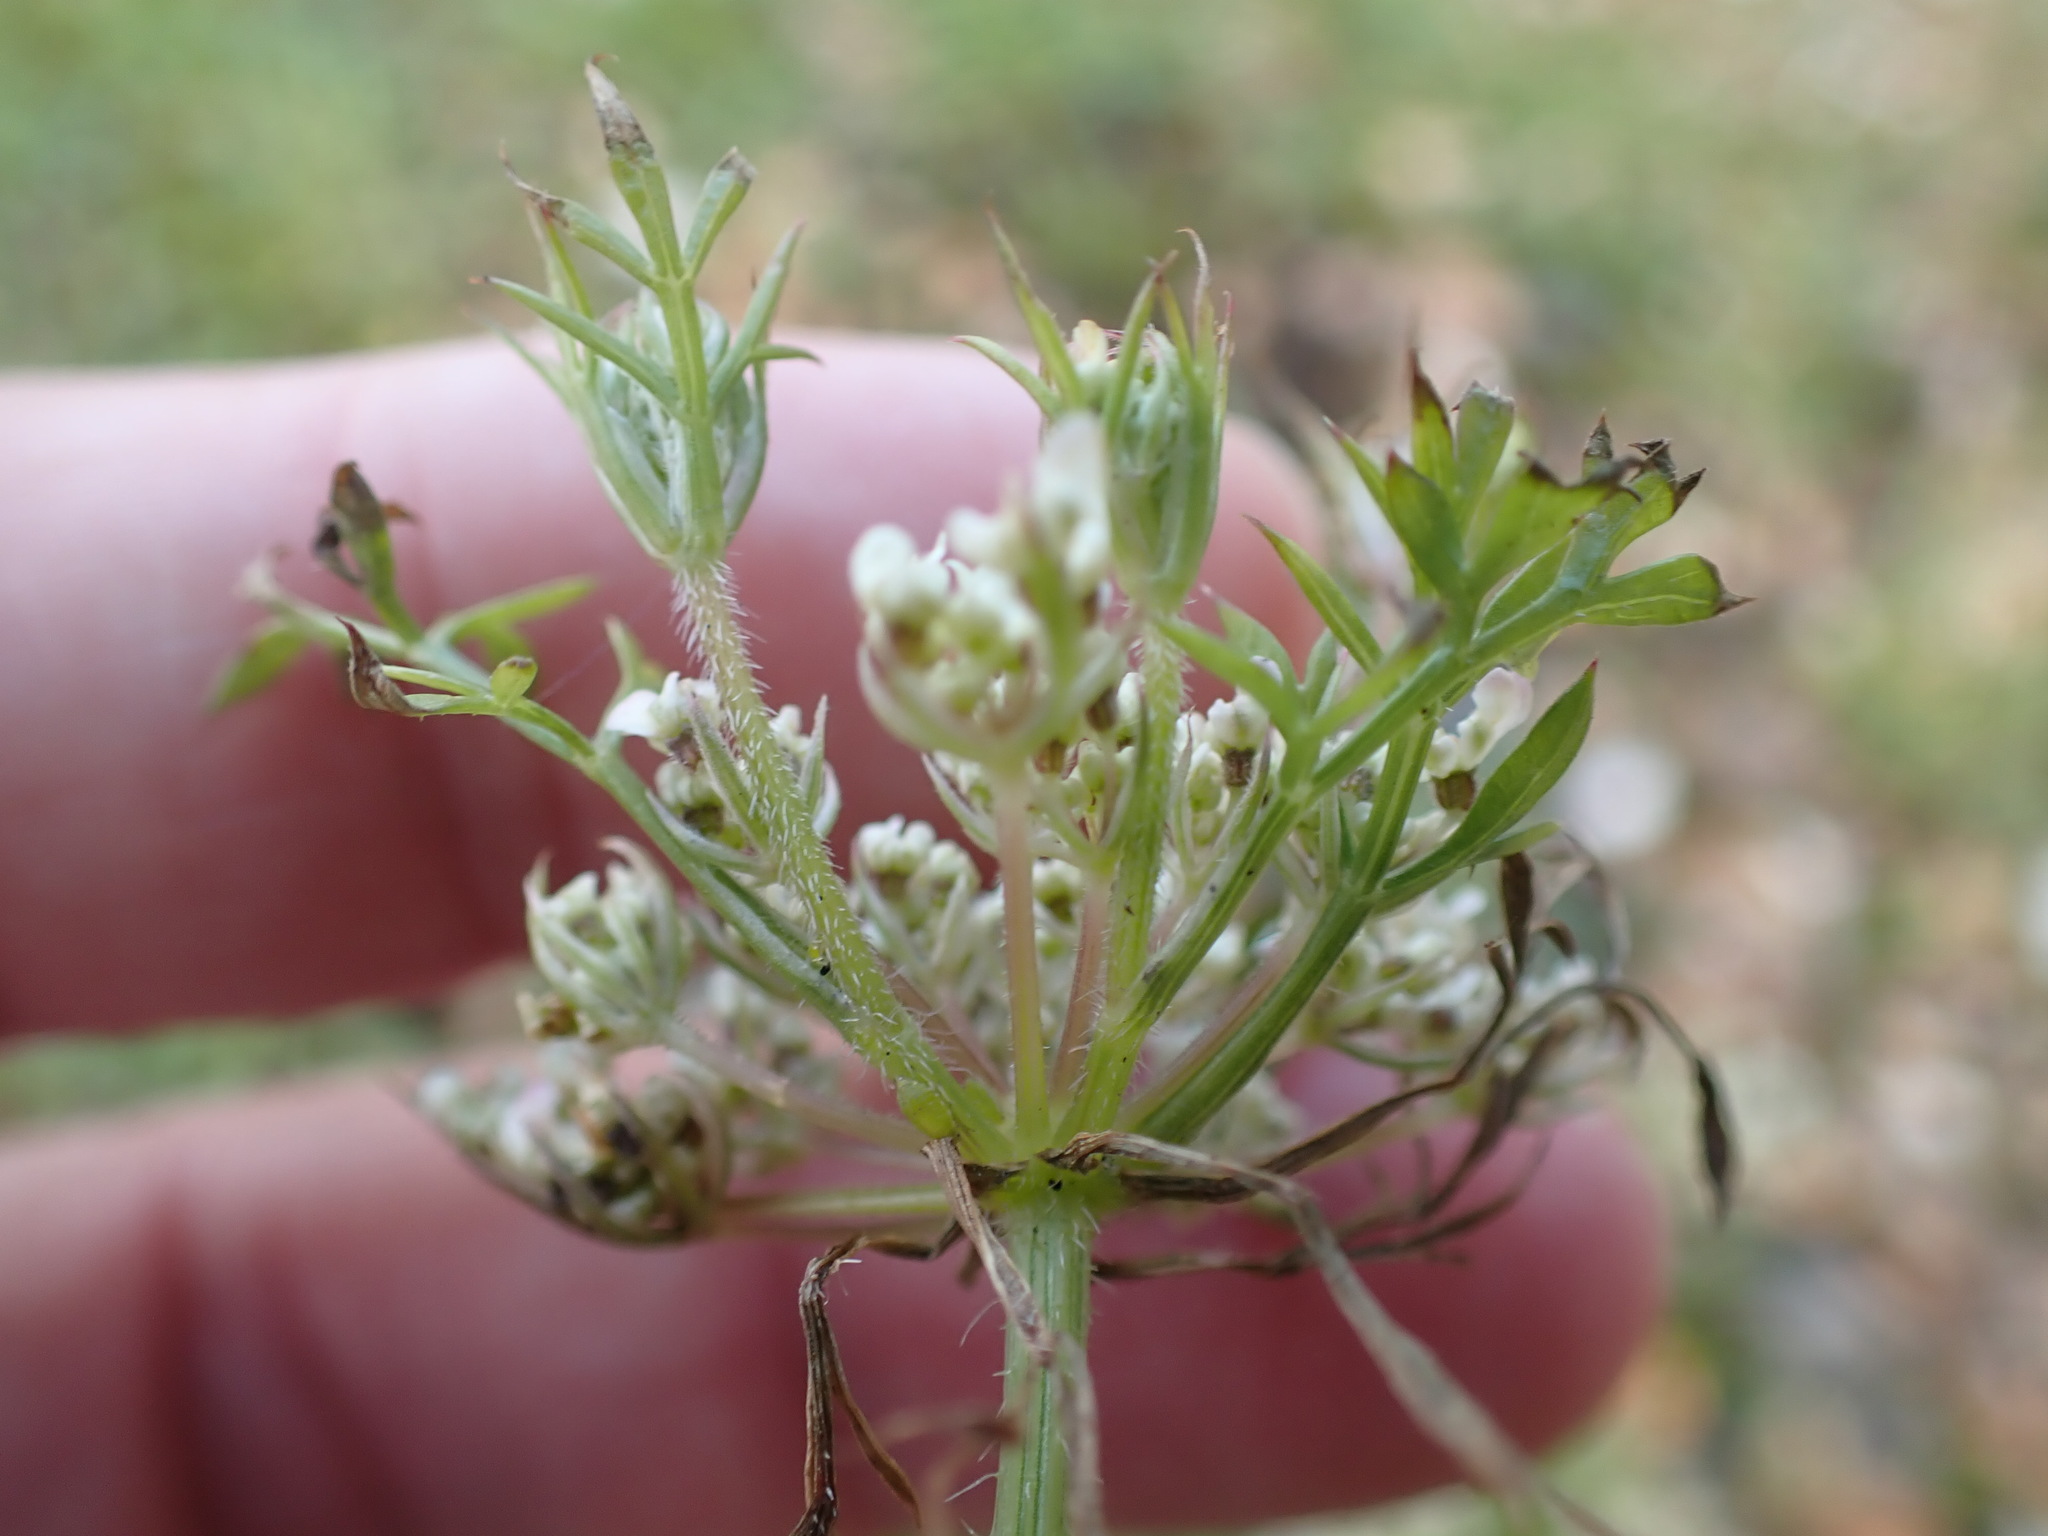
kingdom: Plantae
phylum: Tracheophyta
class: Magnoliopsida
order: Apiales
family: Apiaceae
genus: Daucus
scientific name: Daucus carota
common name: Wild carrot
